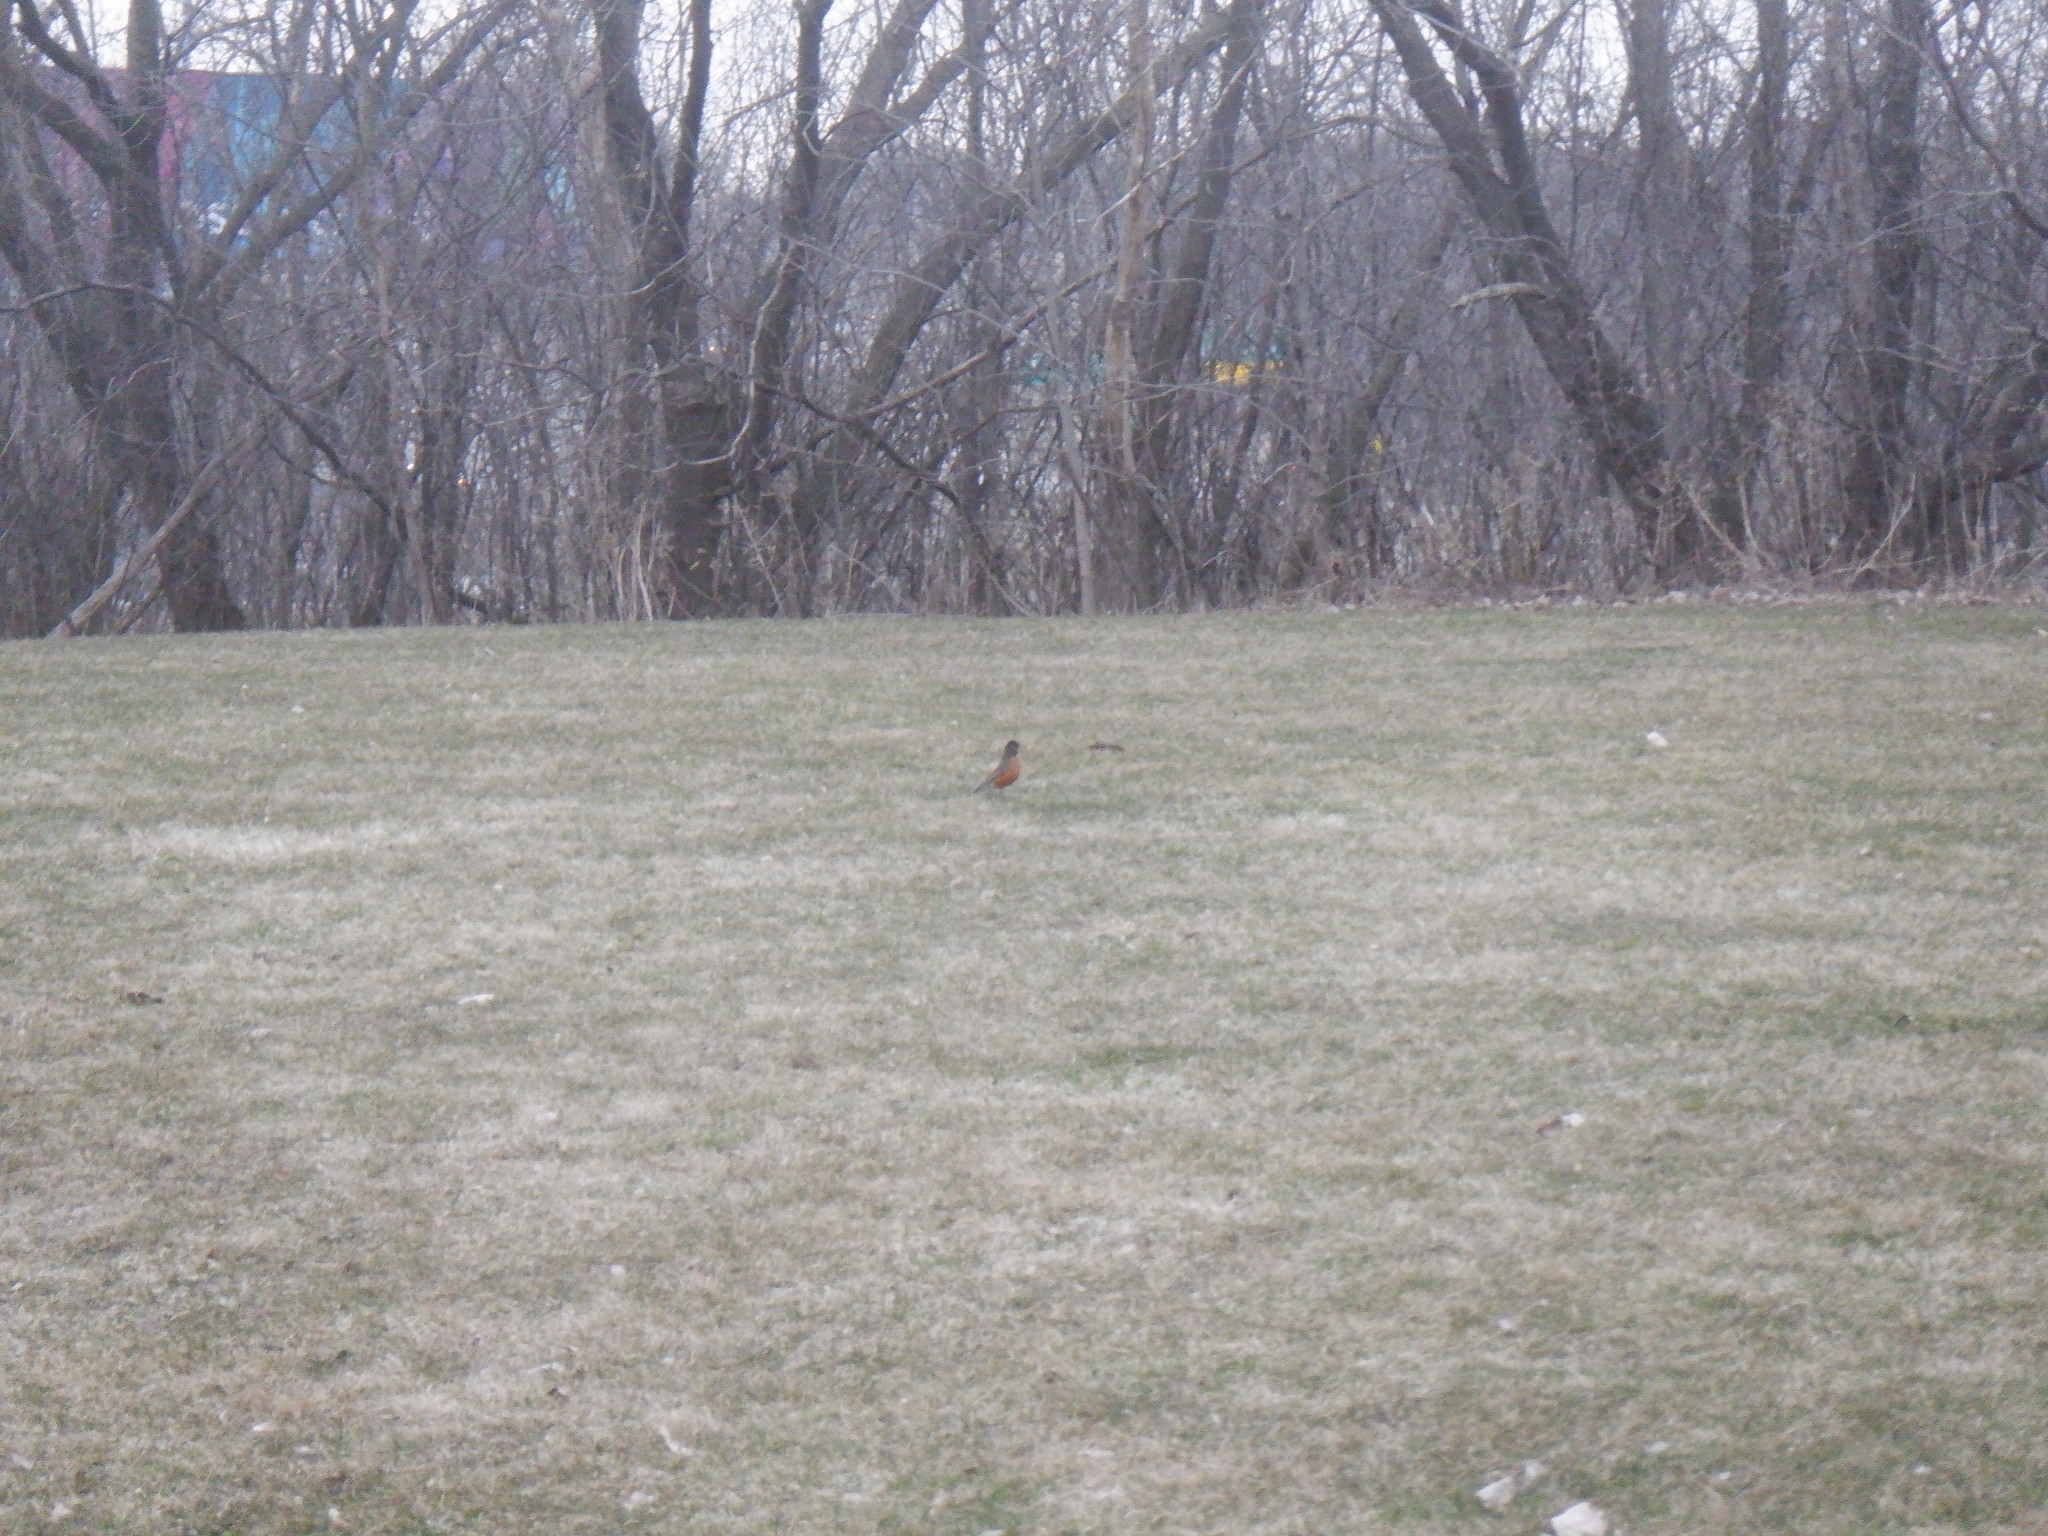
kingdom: Animalia
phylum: Chordata
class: Aves
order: Passeriformes
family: Turdidae
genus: Turdus
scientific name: Turdus migratorius
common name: American robin
